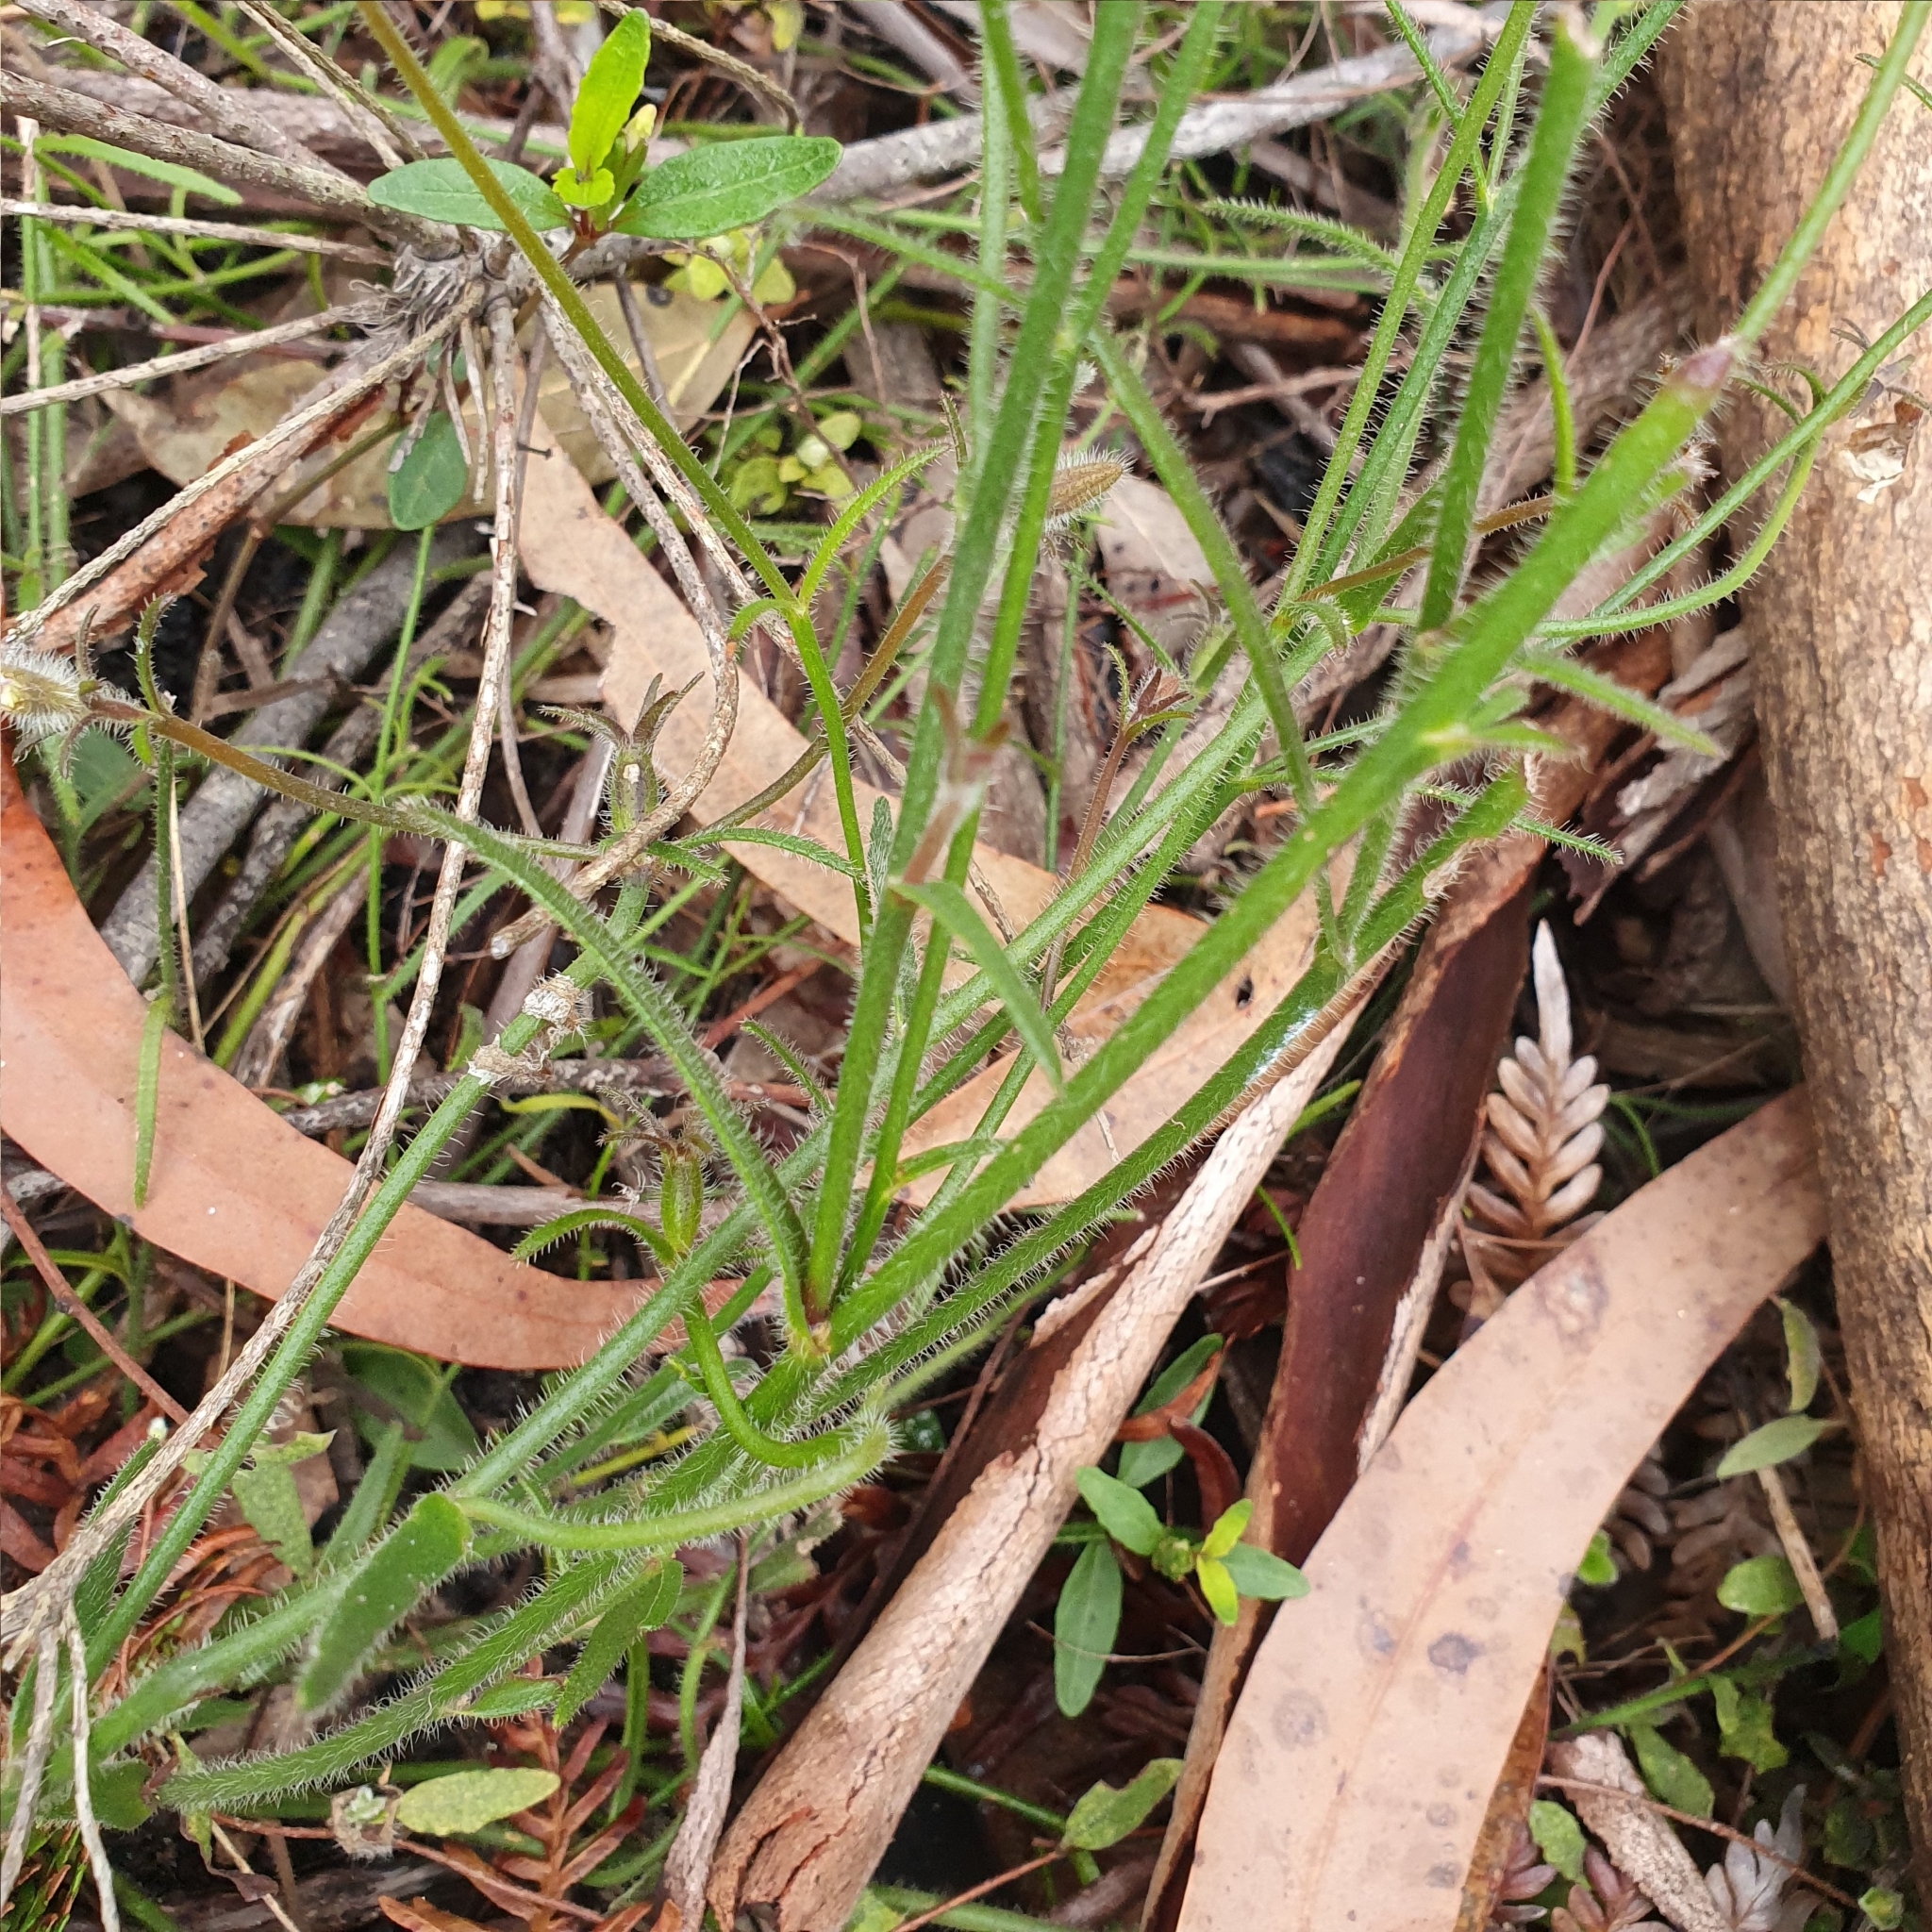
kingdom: Plantae
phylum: Tracheophyta
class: Magnoliopsida
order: Asterales
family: Goodeniaceae
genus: Scaevola
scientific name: Scaevola ramosissima
